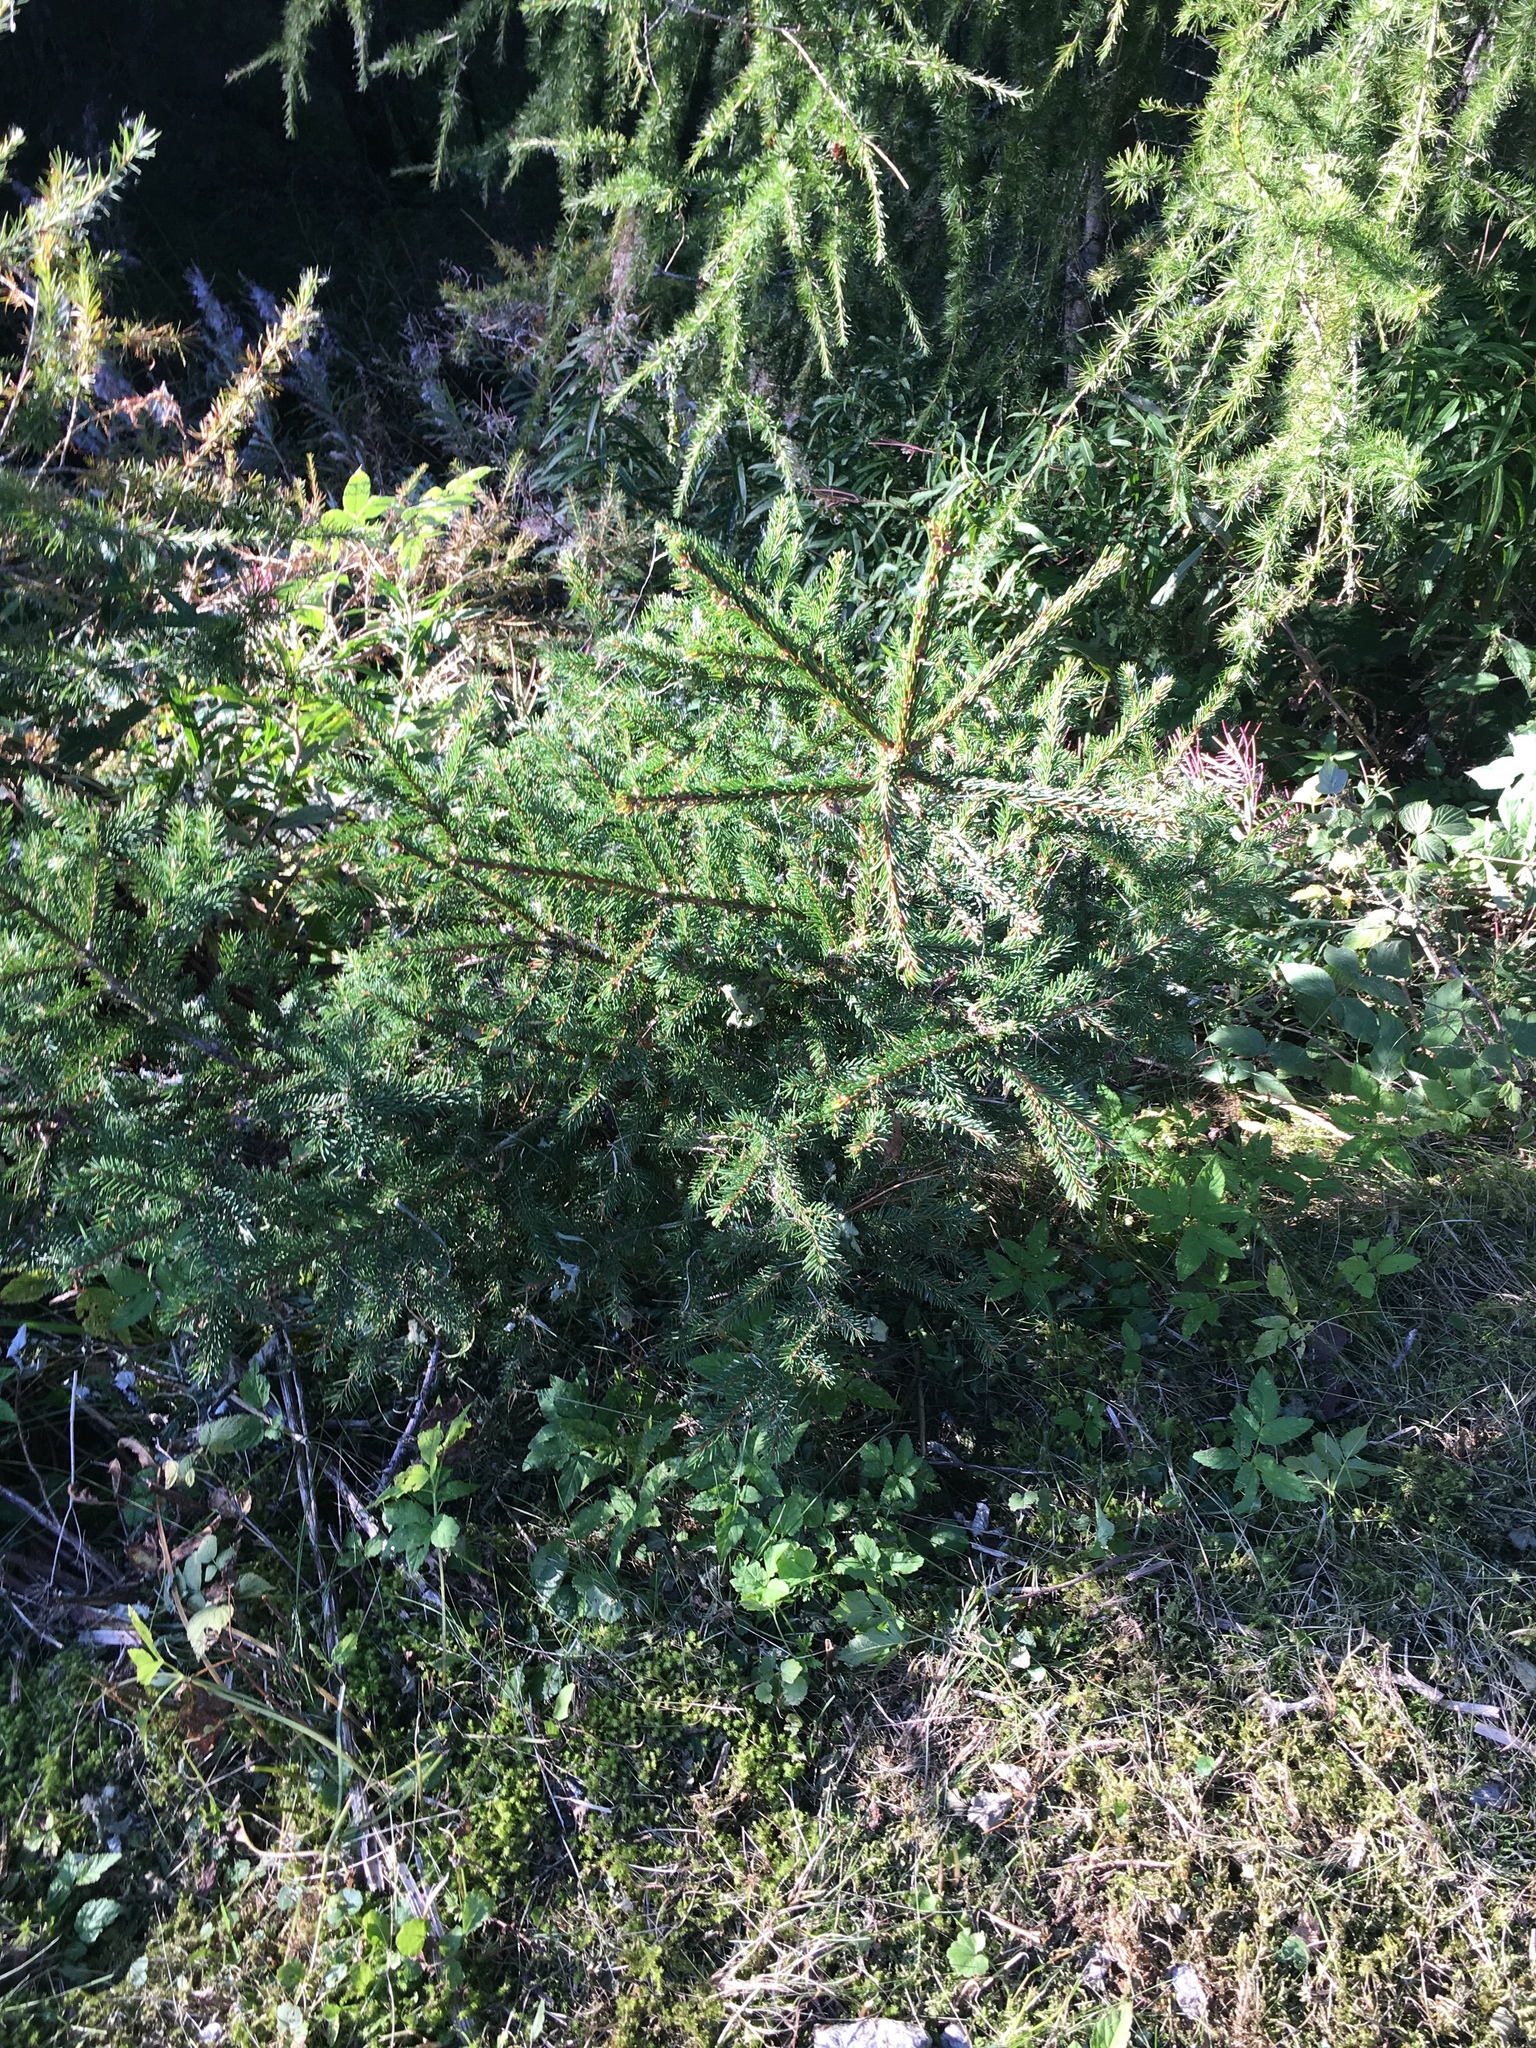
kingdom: Plantae
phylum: Tracheophyta
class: Pinopsida
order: Pinales
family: Pinaceae
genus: Picea
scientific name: Picea abies
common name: Norway spruce
